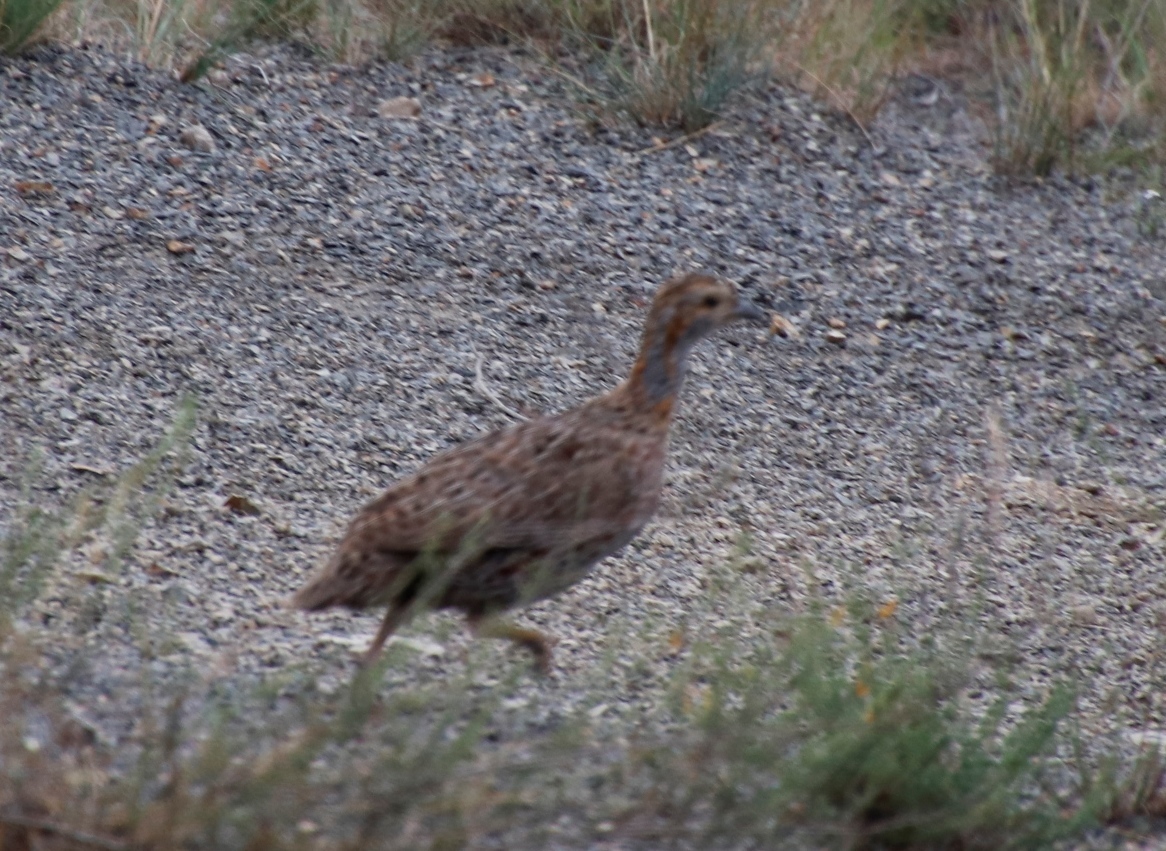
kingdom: Animalia
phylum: Chordata
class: Aves
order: Galliformes
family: Phasianidae
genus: Scleroptila
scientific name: Scleroptila afra
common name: Grey-winged francolin
